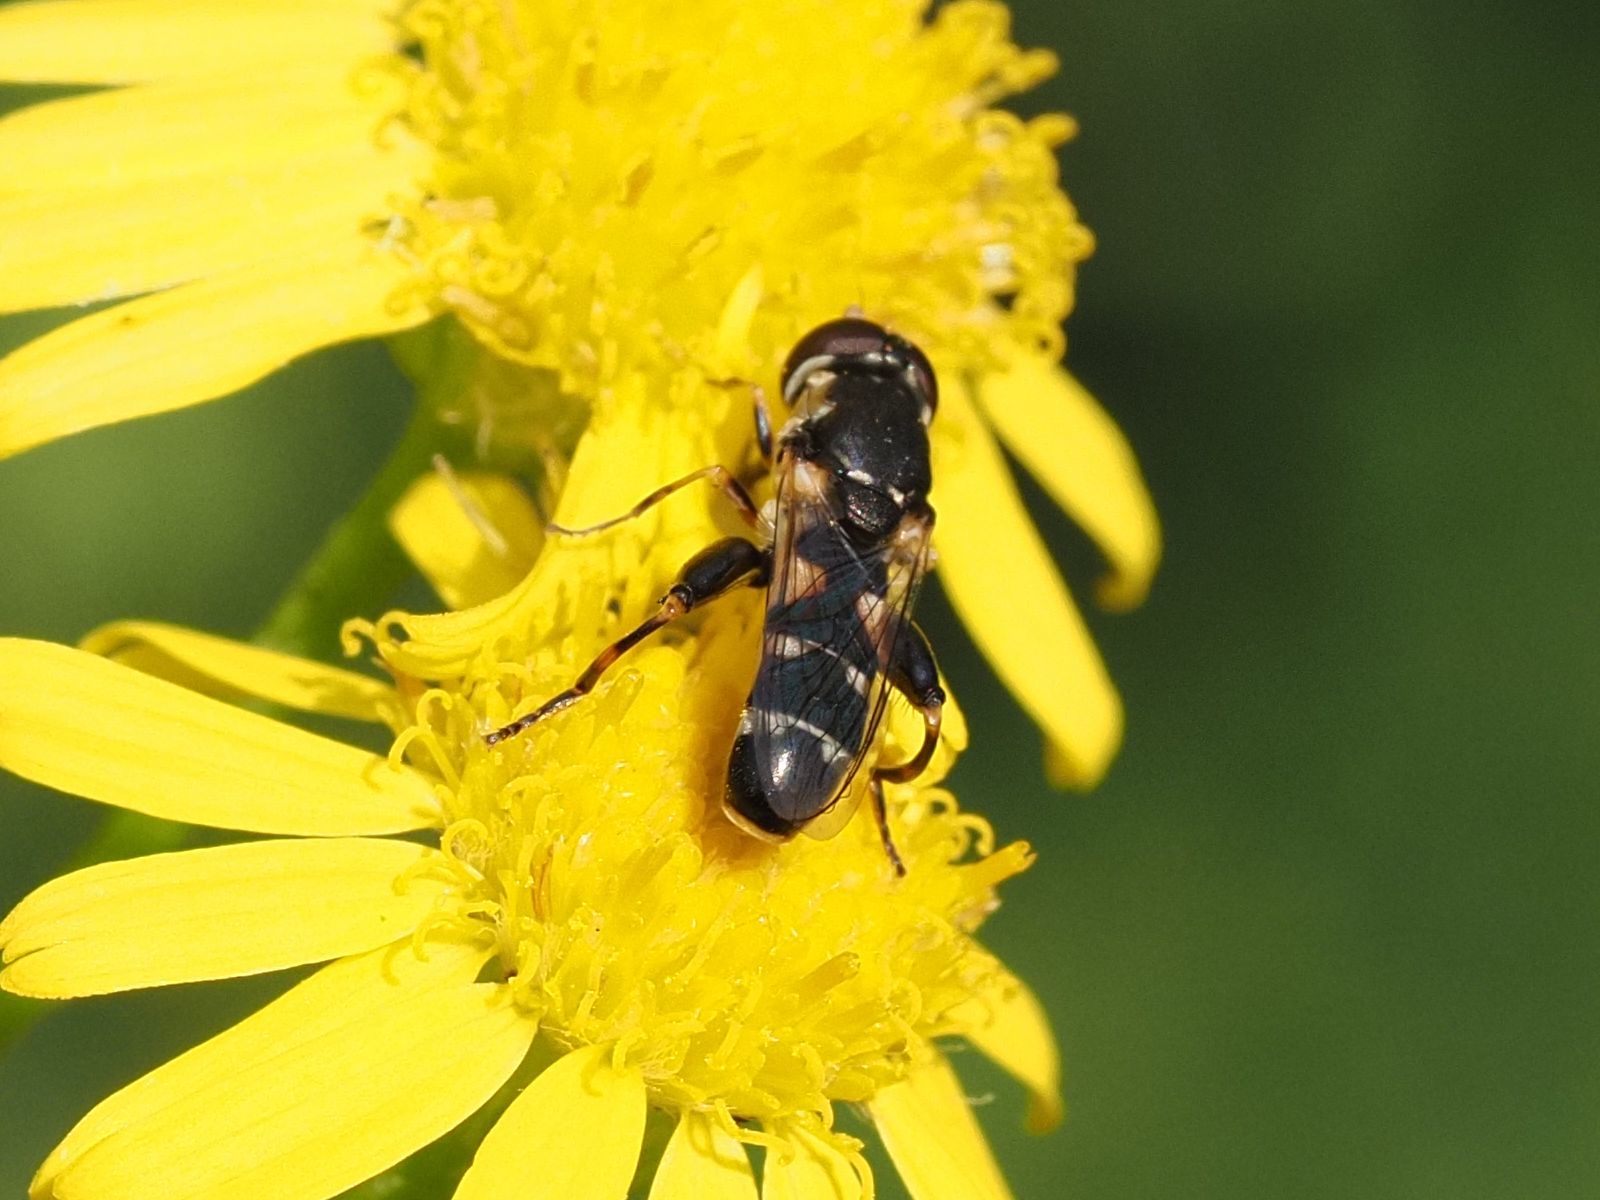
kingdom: Animalia
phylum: Arthropoda
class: Insecta
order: Diptera
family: Syrphidae
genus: Syritta
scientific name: Syritta pipiens
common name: Hover fly
